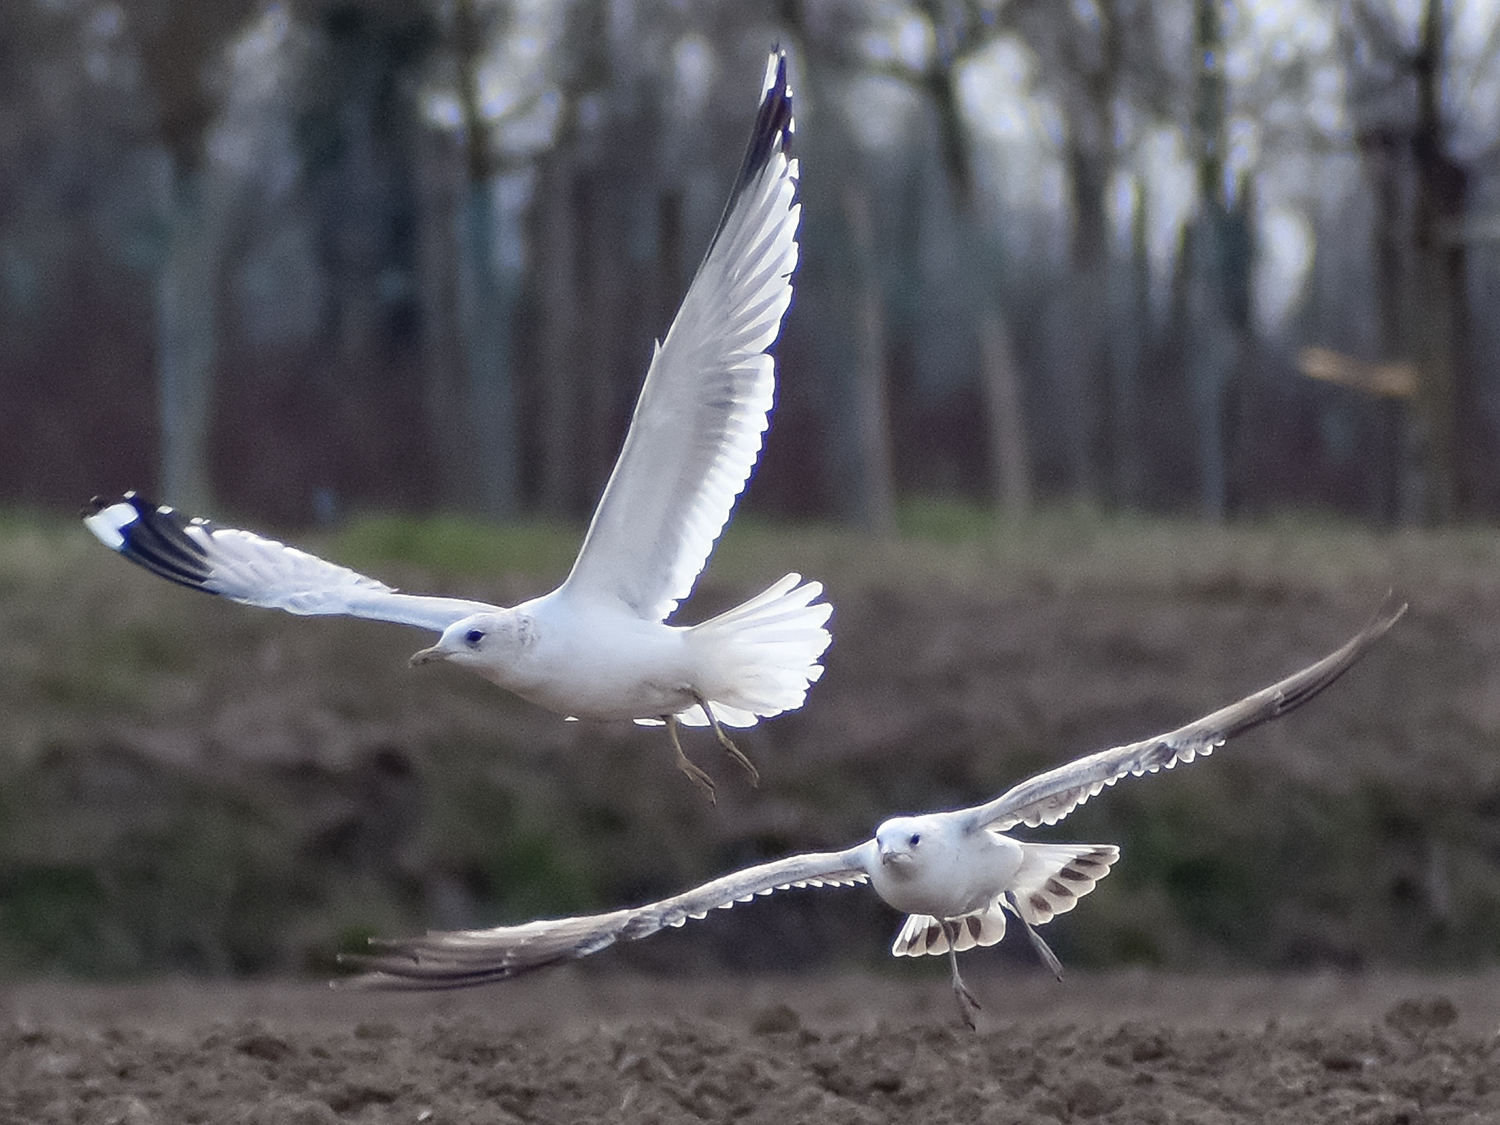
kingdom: Animalia
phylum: Chordata
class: Aves
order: Charadriiformes
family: Laridae
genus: Chroicocephalus
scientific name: Chroicocephalus ridibundus
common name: Black-headed gull
